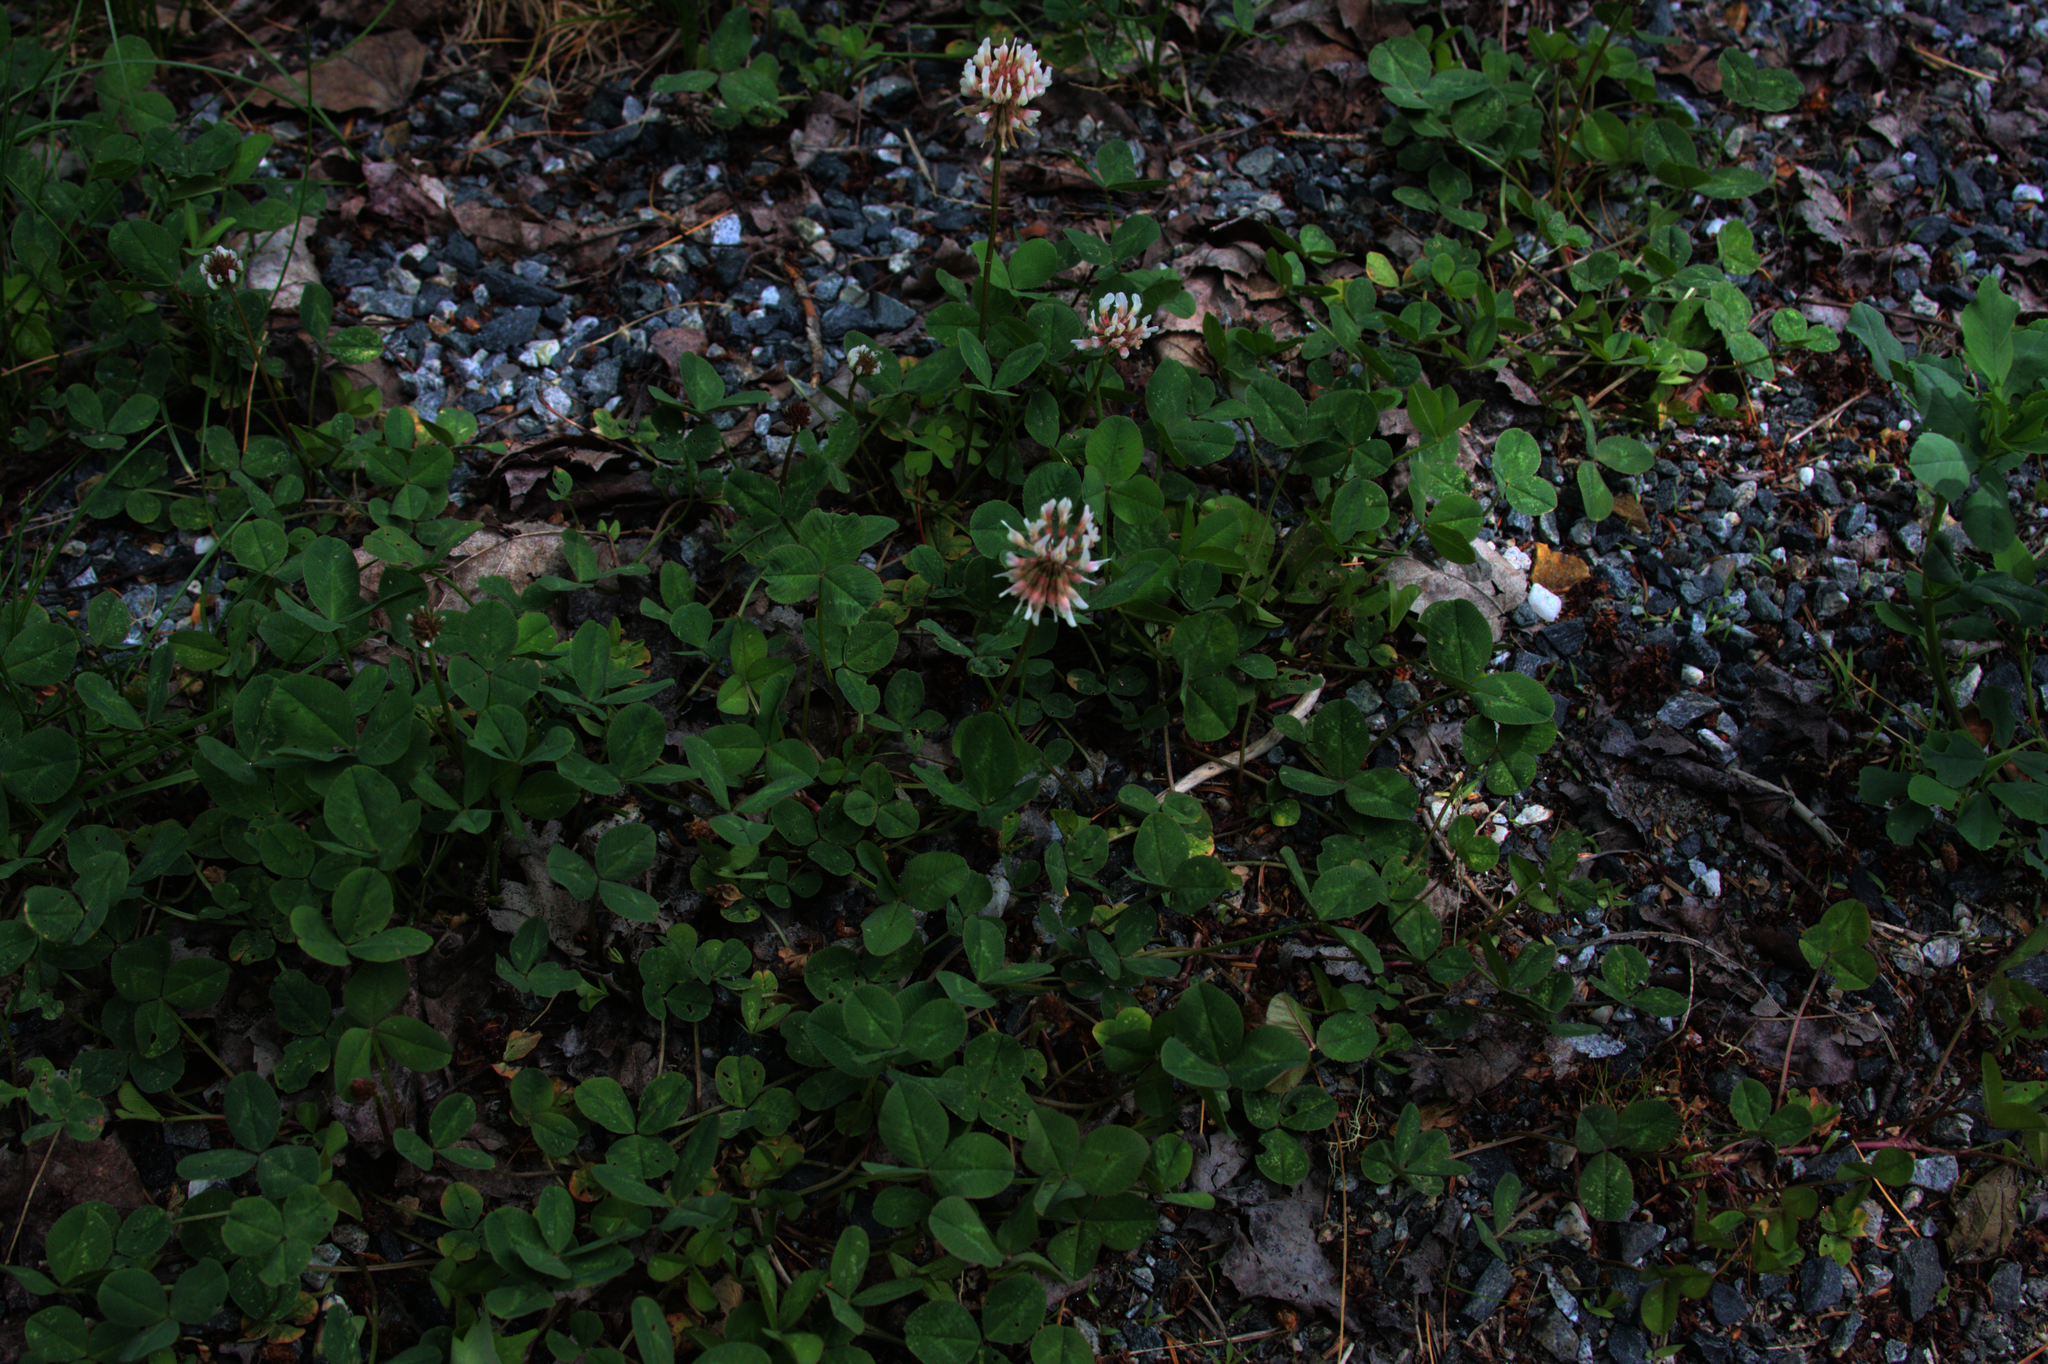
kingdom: Plantae
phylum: Tracheophyta
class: Magnoliopsida
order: Fabales
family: Fabaceae
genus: Trifolium
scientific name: Trifolium repens
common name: White clover
